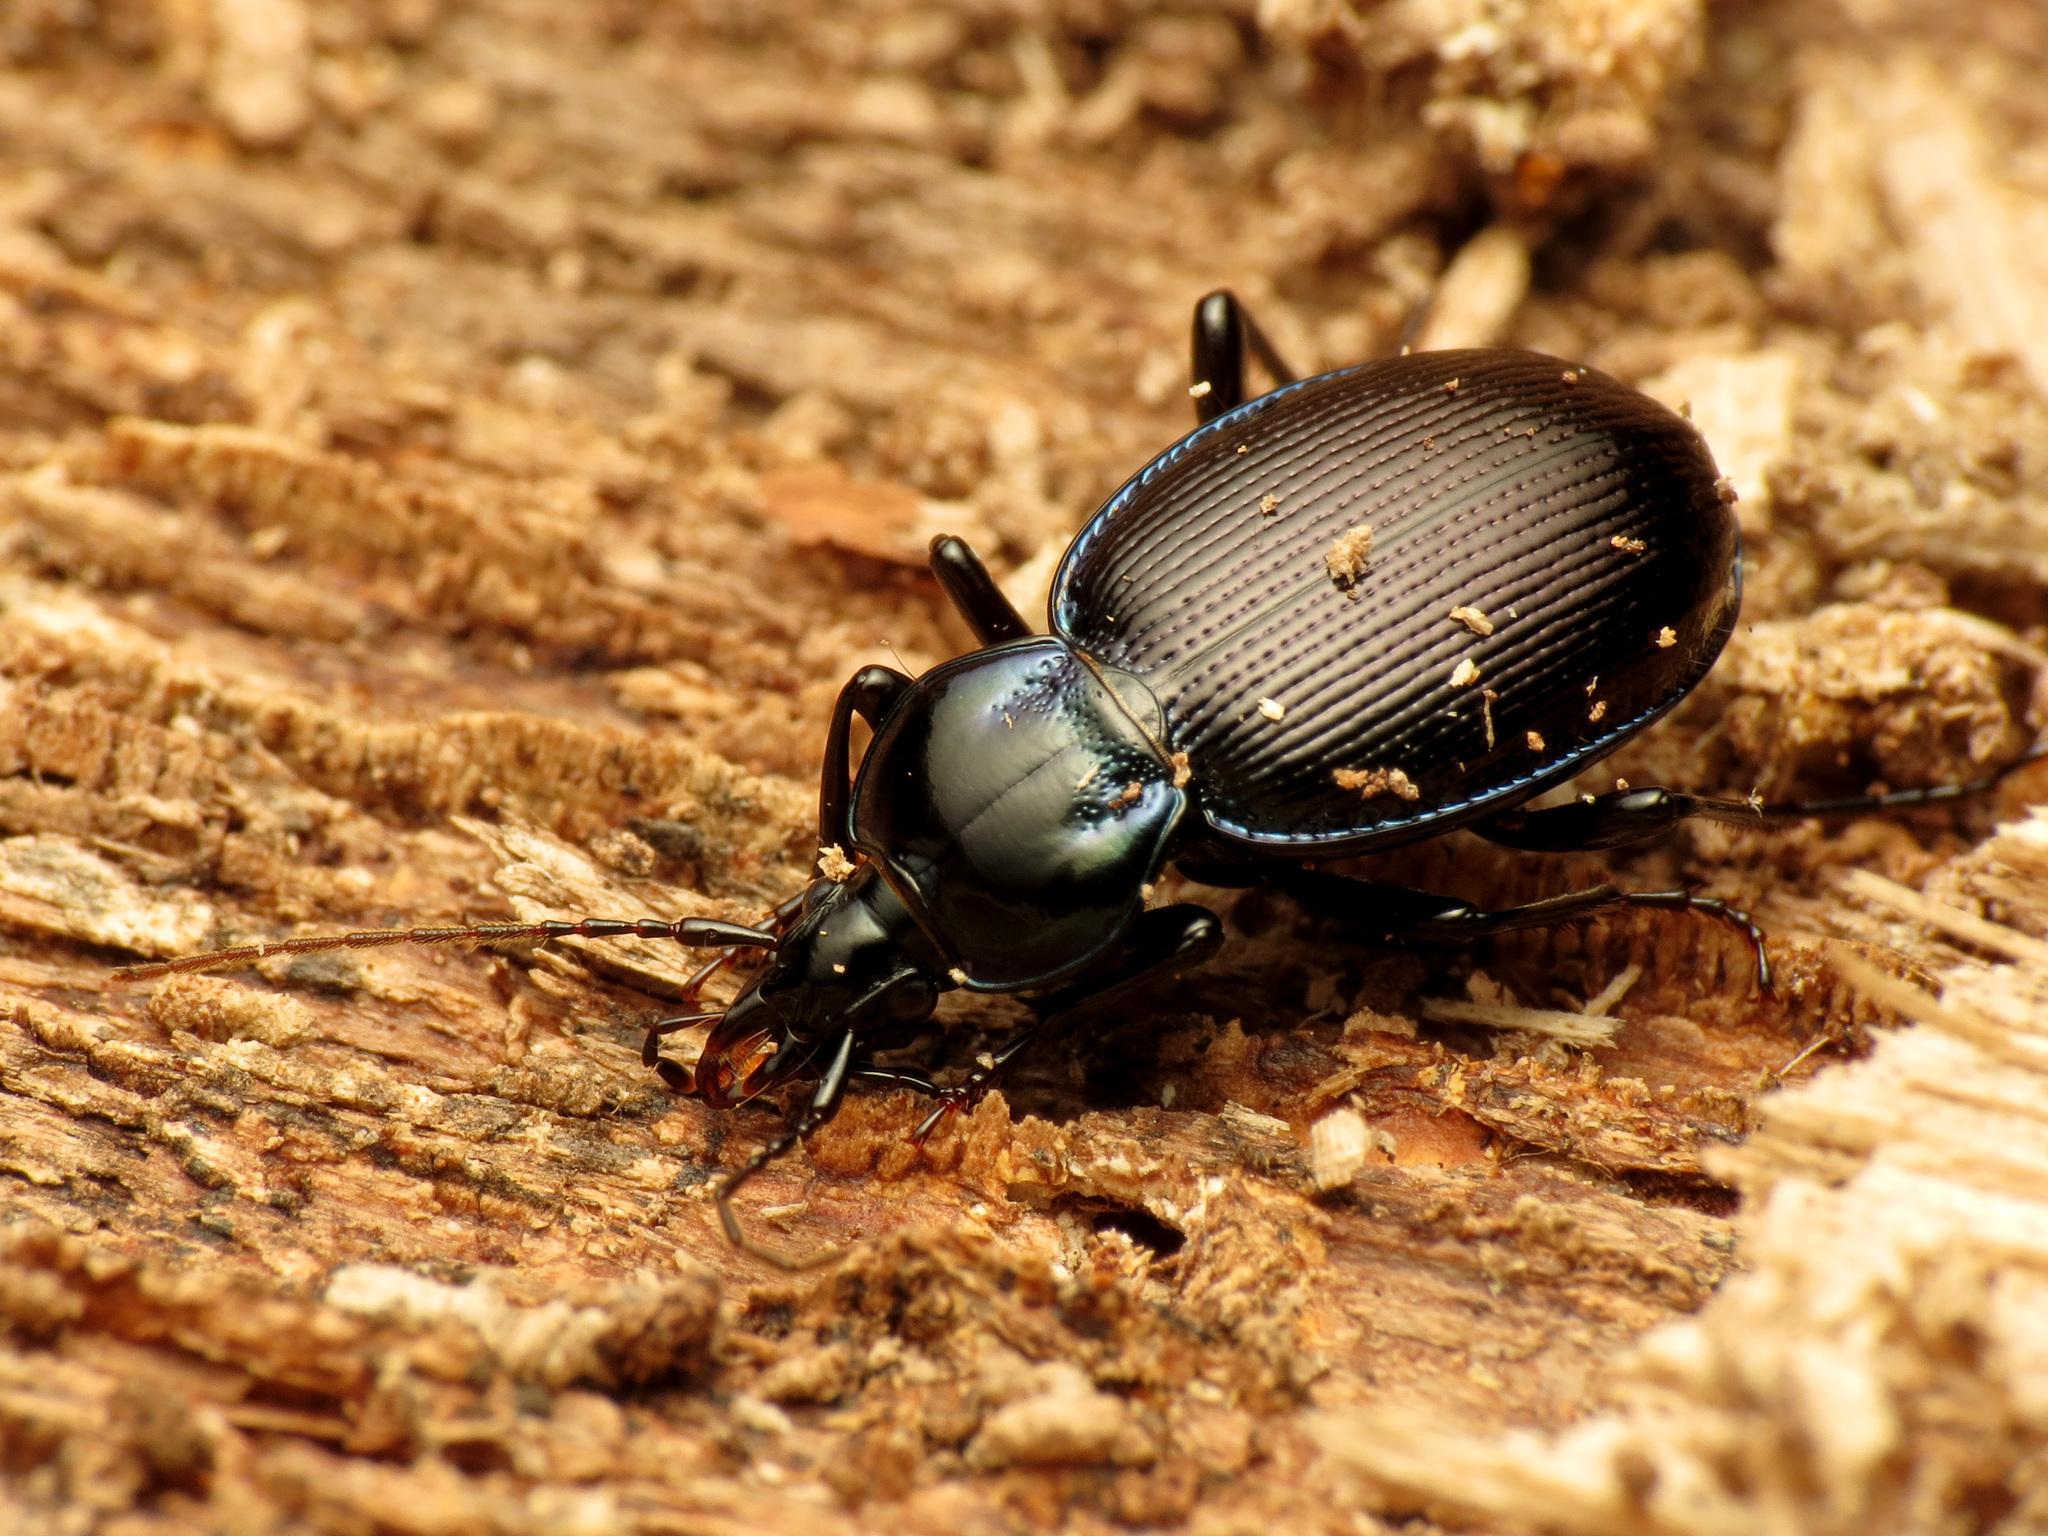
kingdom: Animalia
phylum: Arthropoda
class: Insecta
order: Coleoptera
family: Carabidae
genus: Sphaeroderus
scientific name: Sphaeroderus stenostomus
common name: Small snail-eating ground beetle
